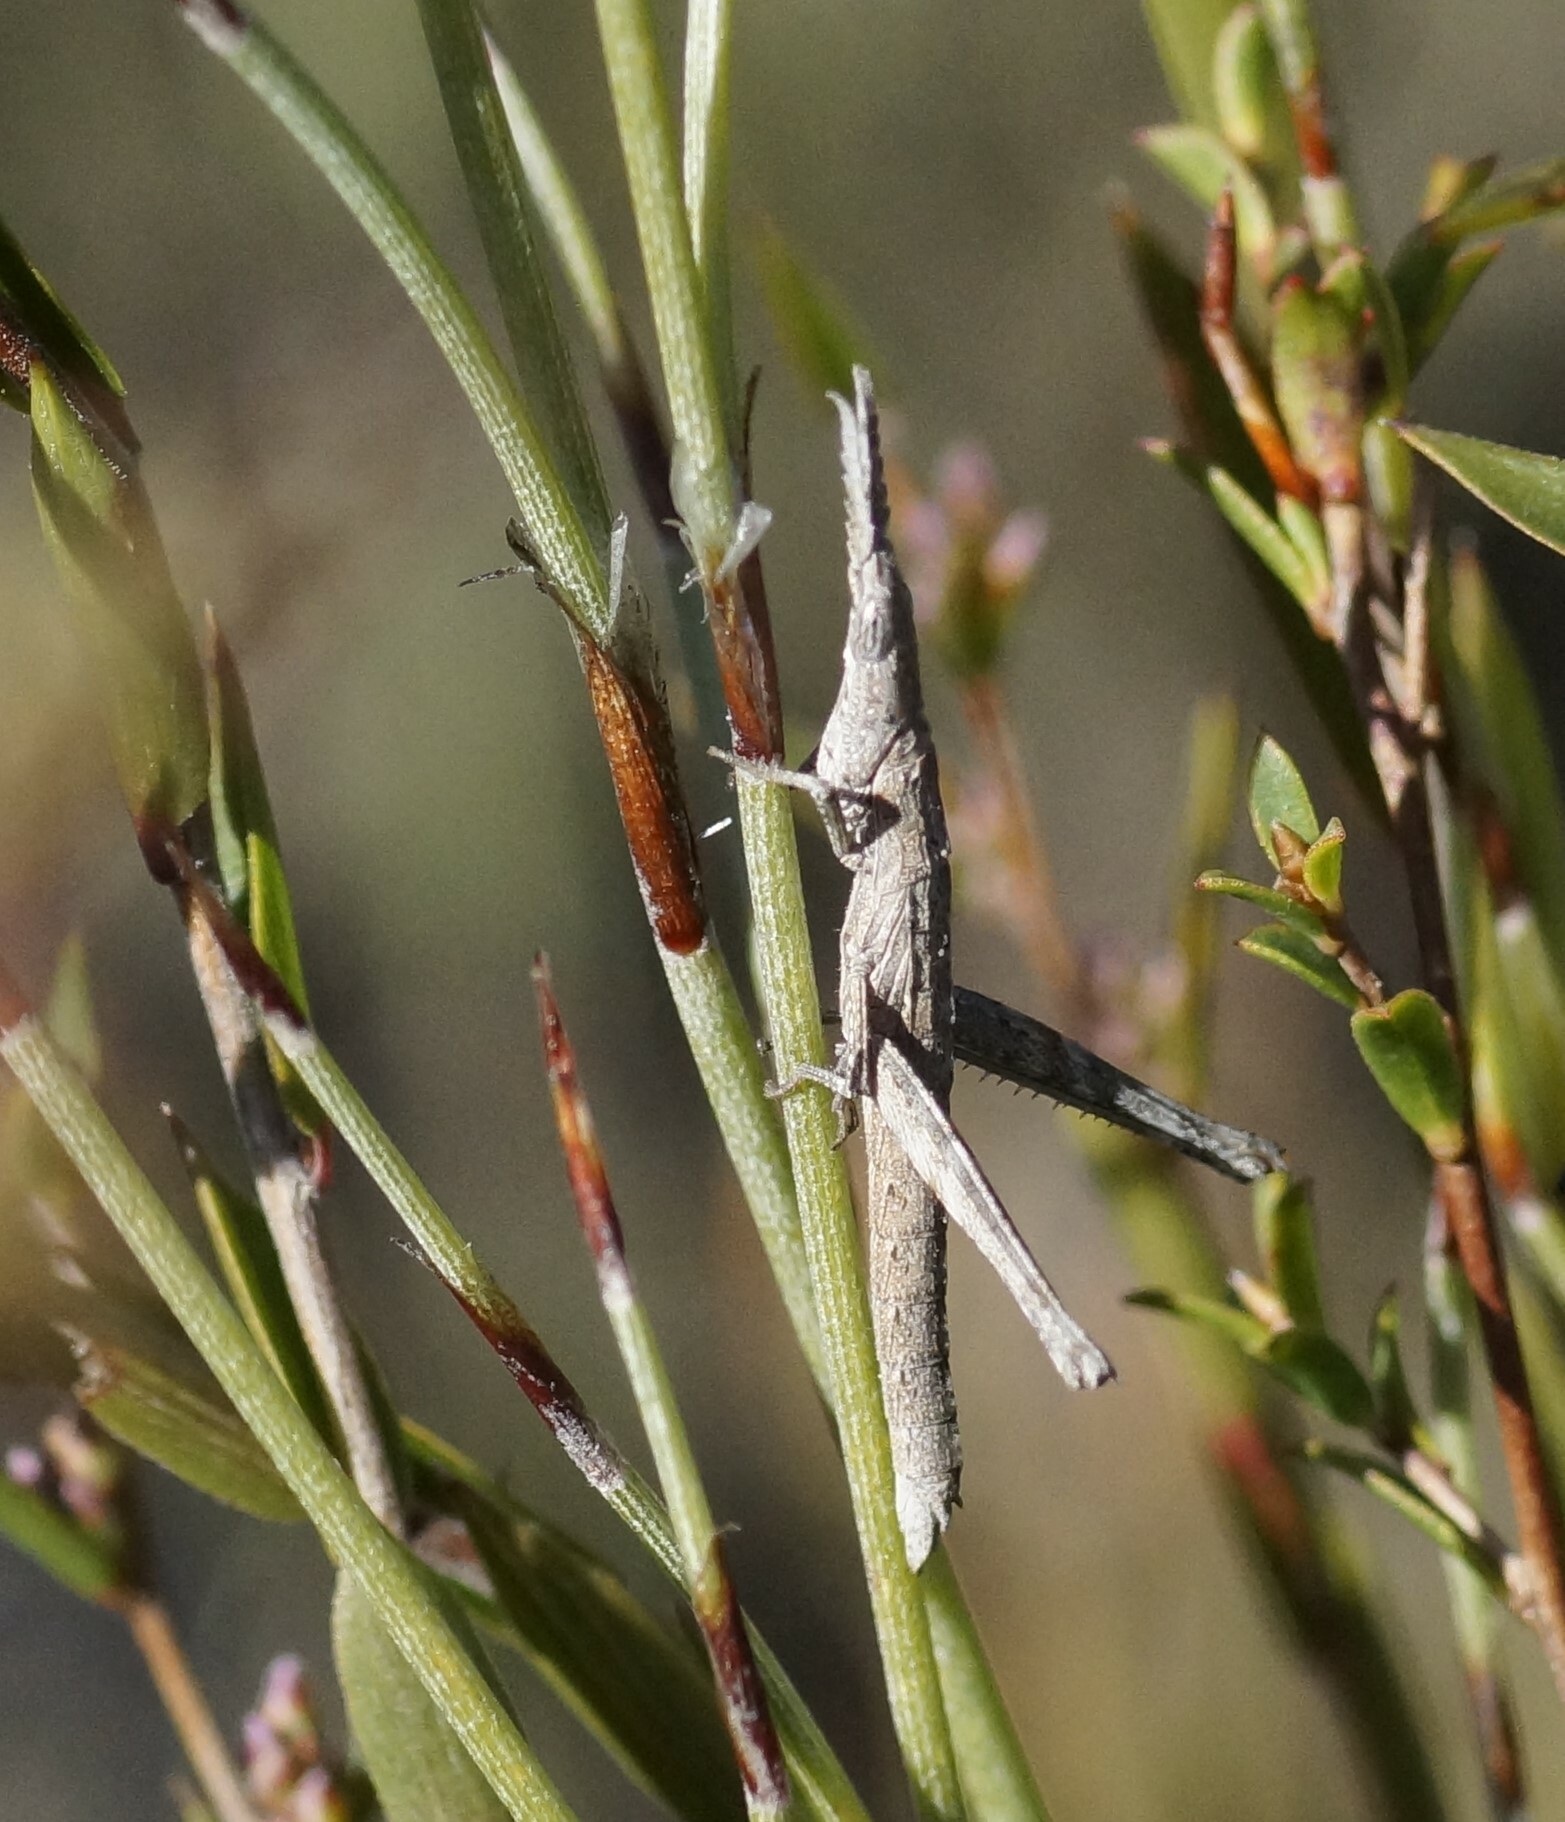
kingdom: Animalia
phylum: Arthropoda
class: Insecta
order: Orthoptera
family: Morabidae
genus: Vandiemenella
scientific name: Vandiemenella viatica
